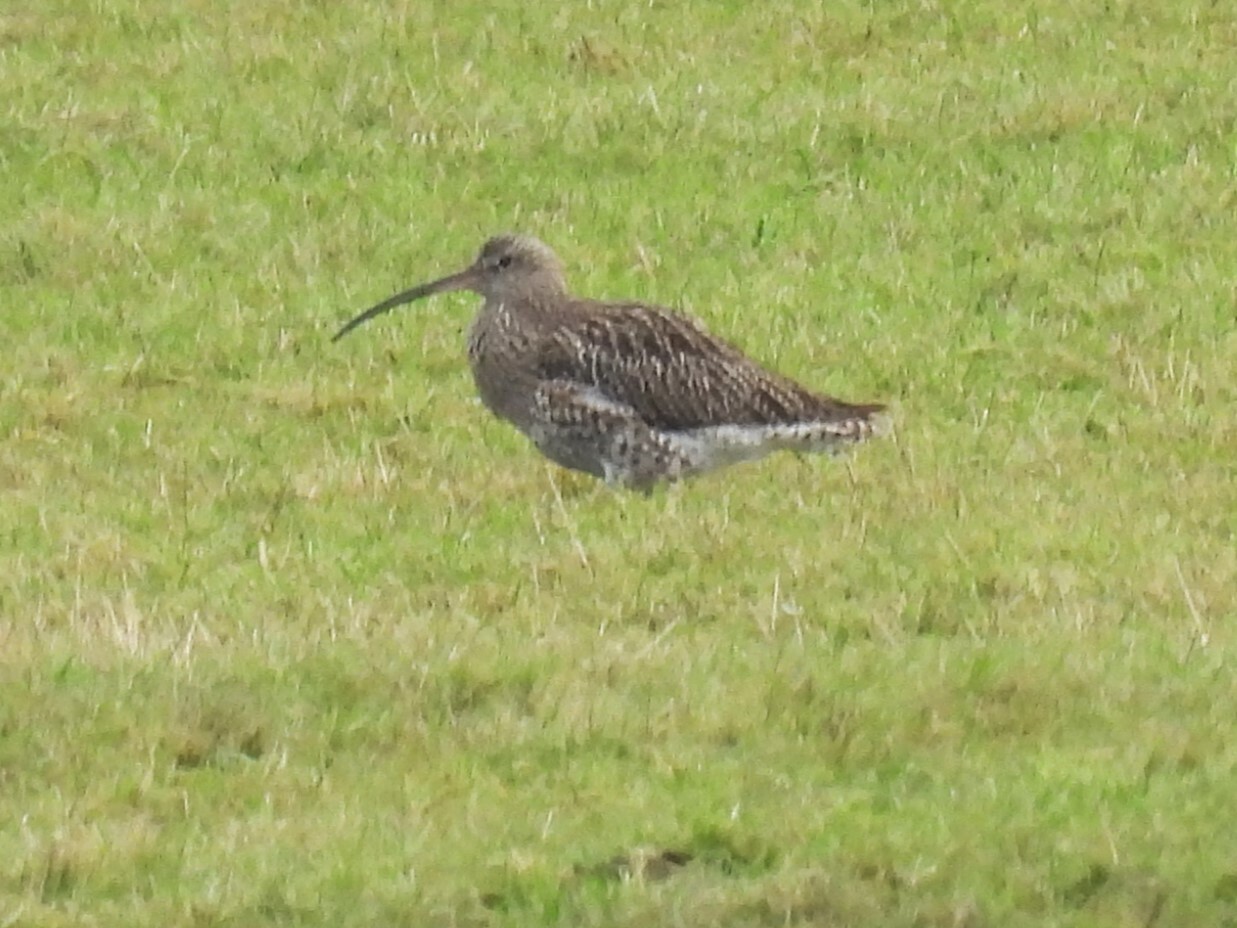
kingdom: Animalia
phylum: Chordata
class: Aves
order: Charadriiformes
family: Scolopacidae
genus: Numenius
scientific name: Numenius arquata
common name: Eurasian curlew
